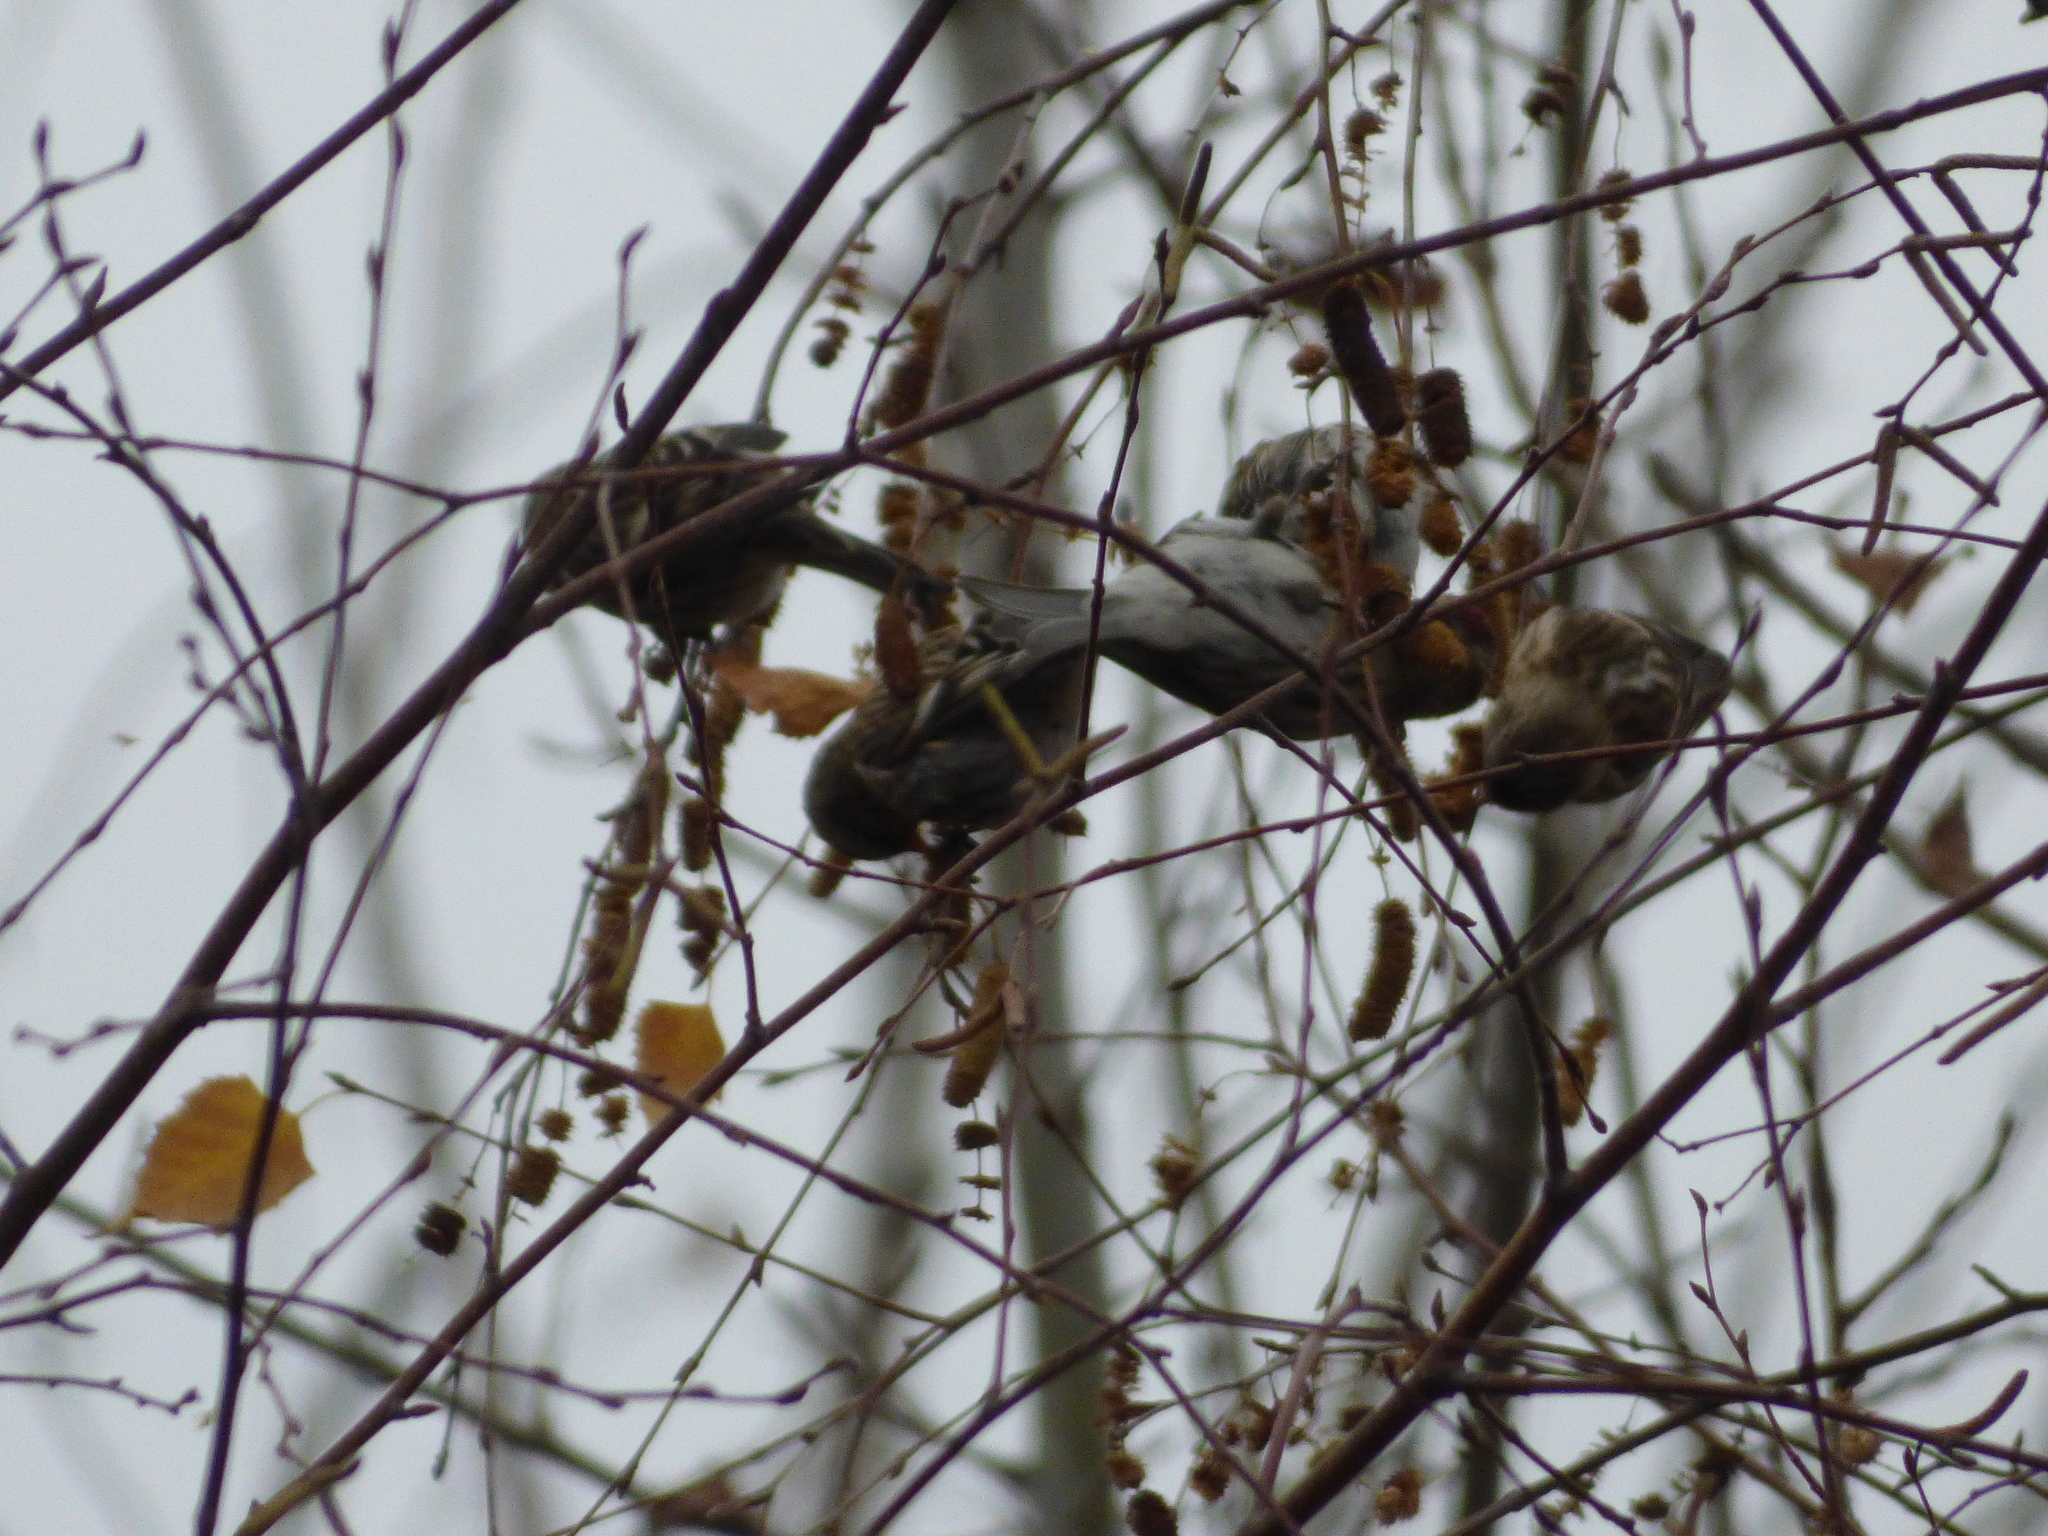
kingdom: Animalia
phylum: Chordata
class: Aves
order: Passeriformes
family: Fringillidae
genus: Acanthis
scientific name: Acanthis flammea
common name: Common redpoll
